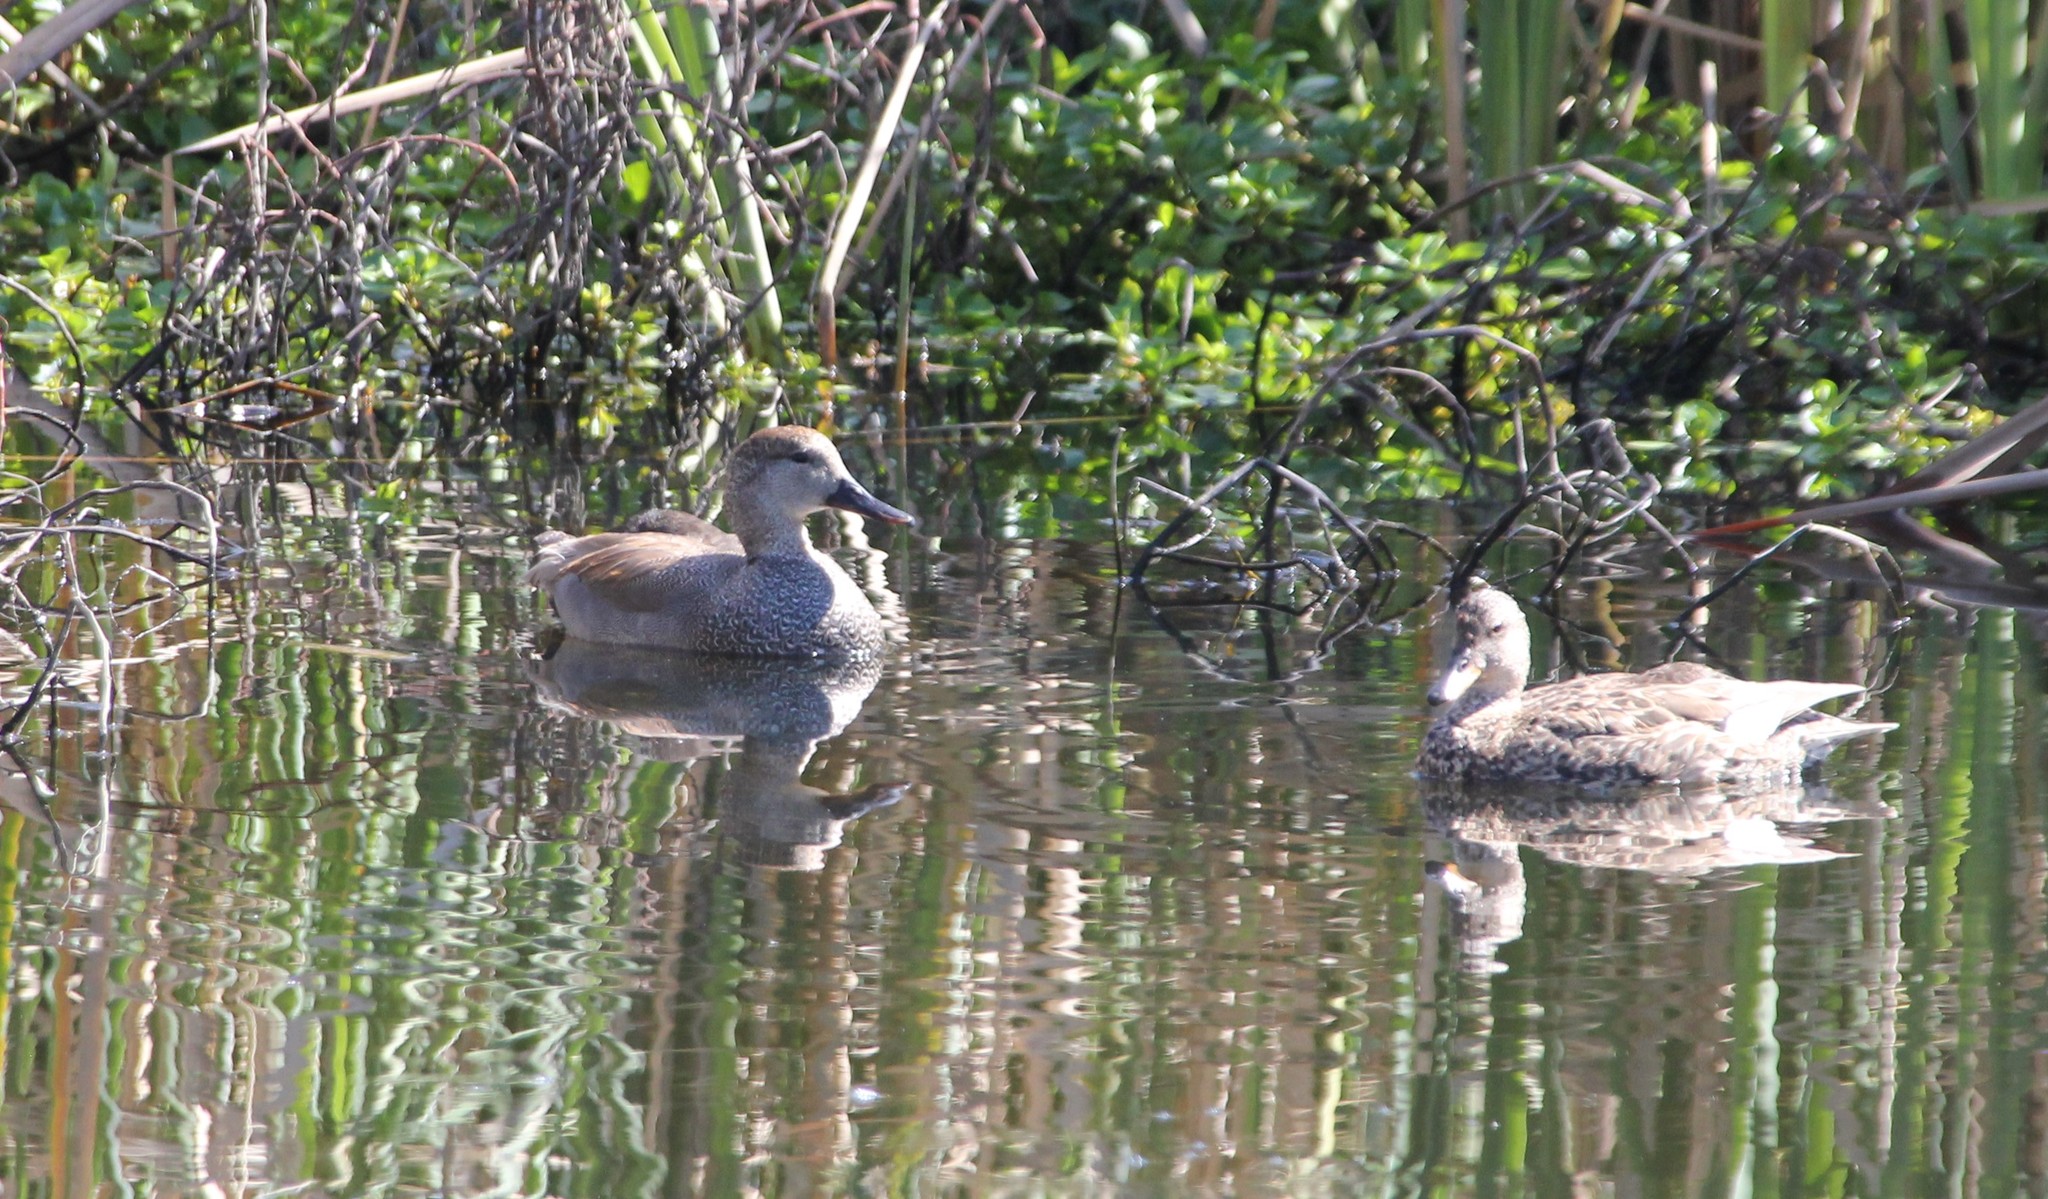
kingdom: Animalia
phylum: Chordata
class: Aves
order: Anseriformes
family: Anatidae
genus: Mareca
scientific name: Mareca strepera
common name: Gadwall
